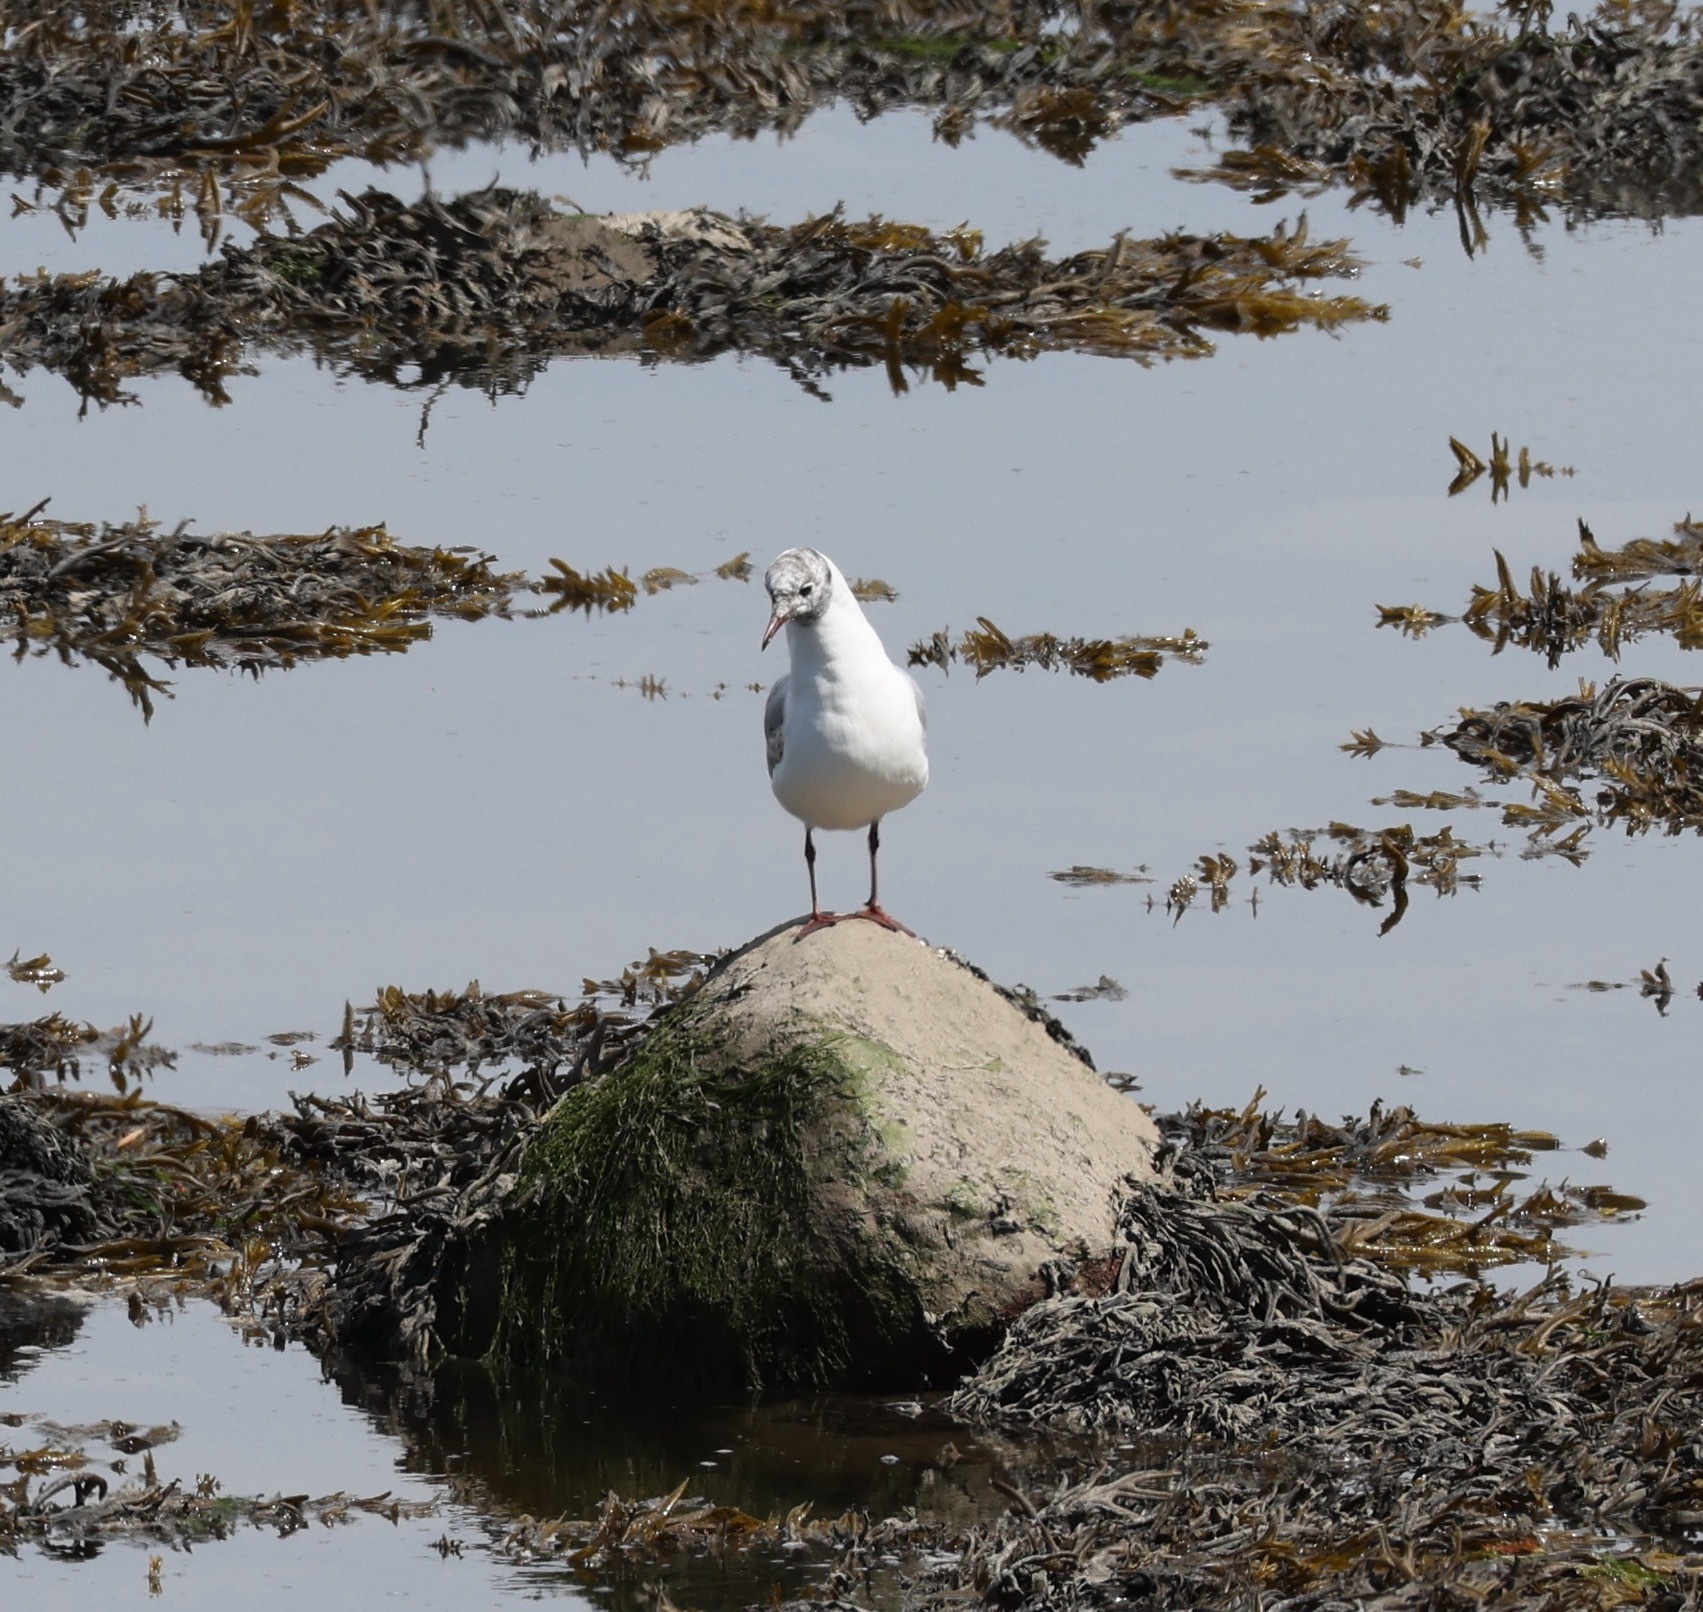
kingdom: Animalia
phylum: Chordata
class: Aves
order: Charadriiformes
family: Laridae
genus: Chroicocephalus
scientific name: Chroicocephalus ridibundus
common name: Black-headed gull
